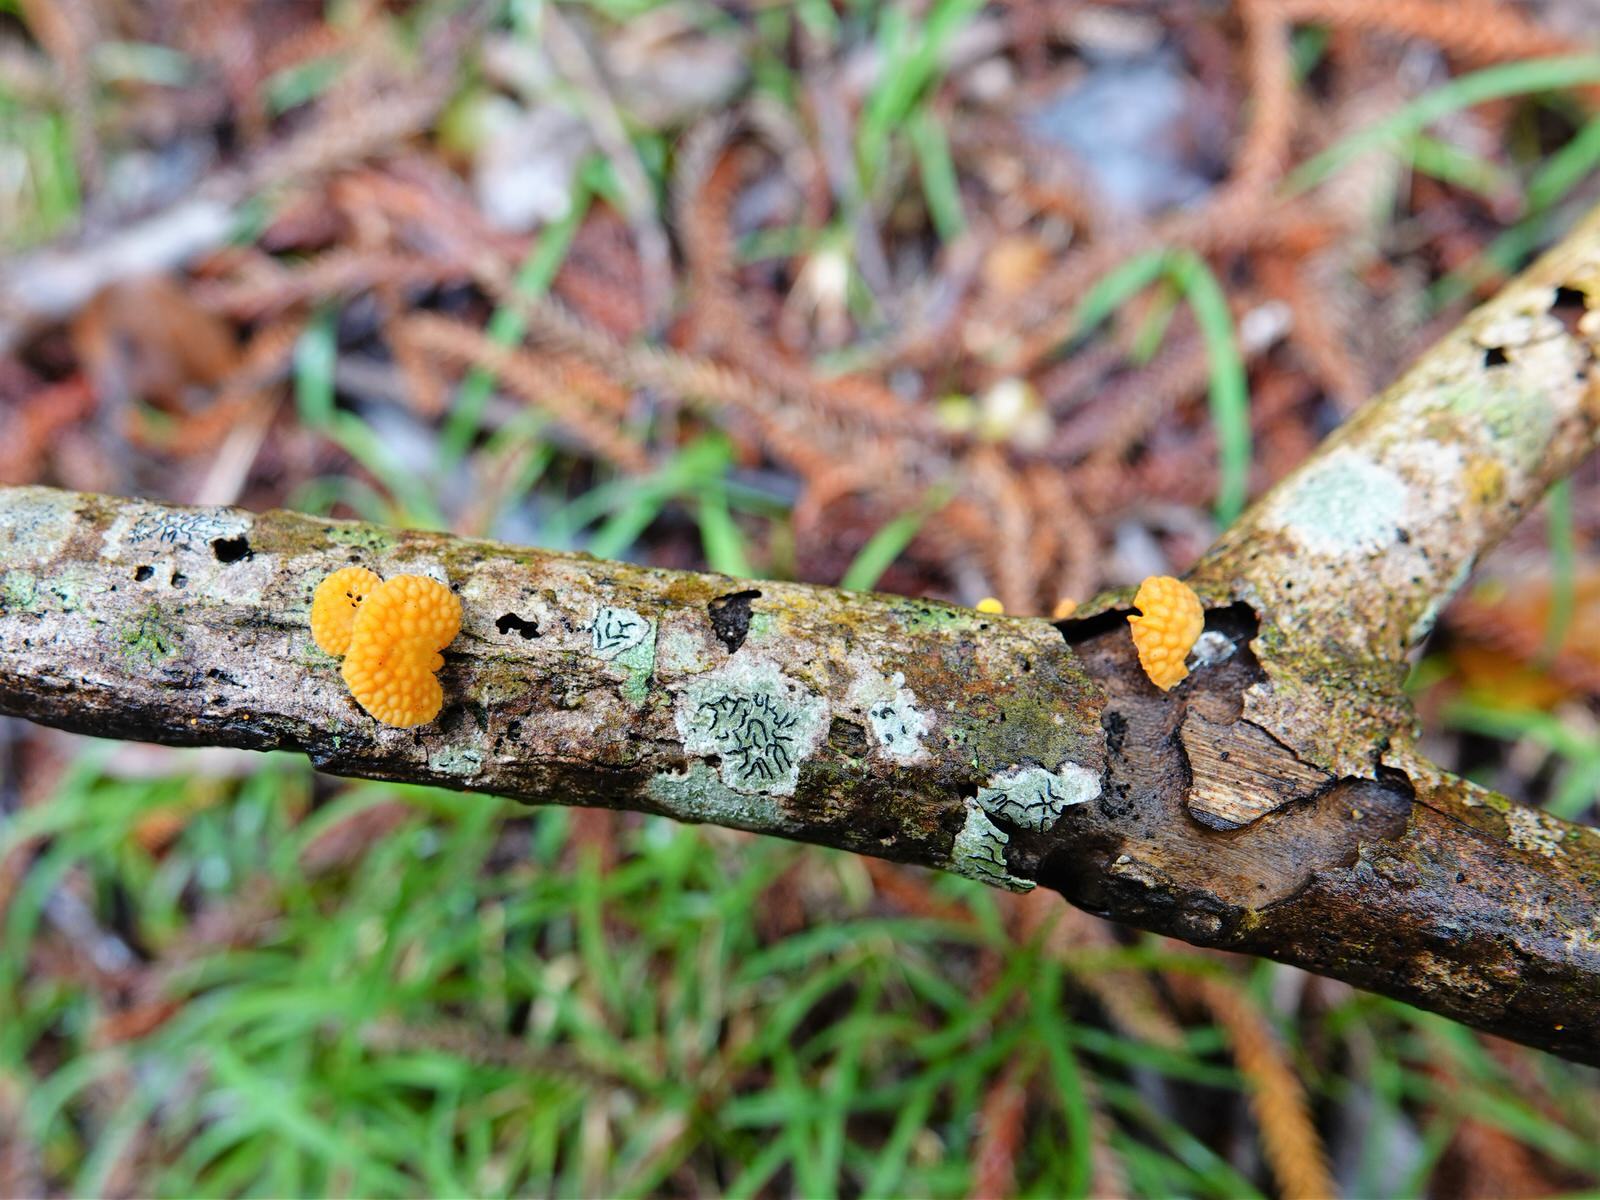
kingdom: Fungi
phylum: Basidiomycota
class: Agaricomycetes
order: Agaricales
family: Mycenaceae
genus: Favolaschia
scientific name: Favolaschia claudopus
